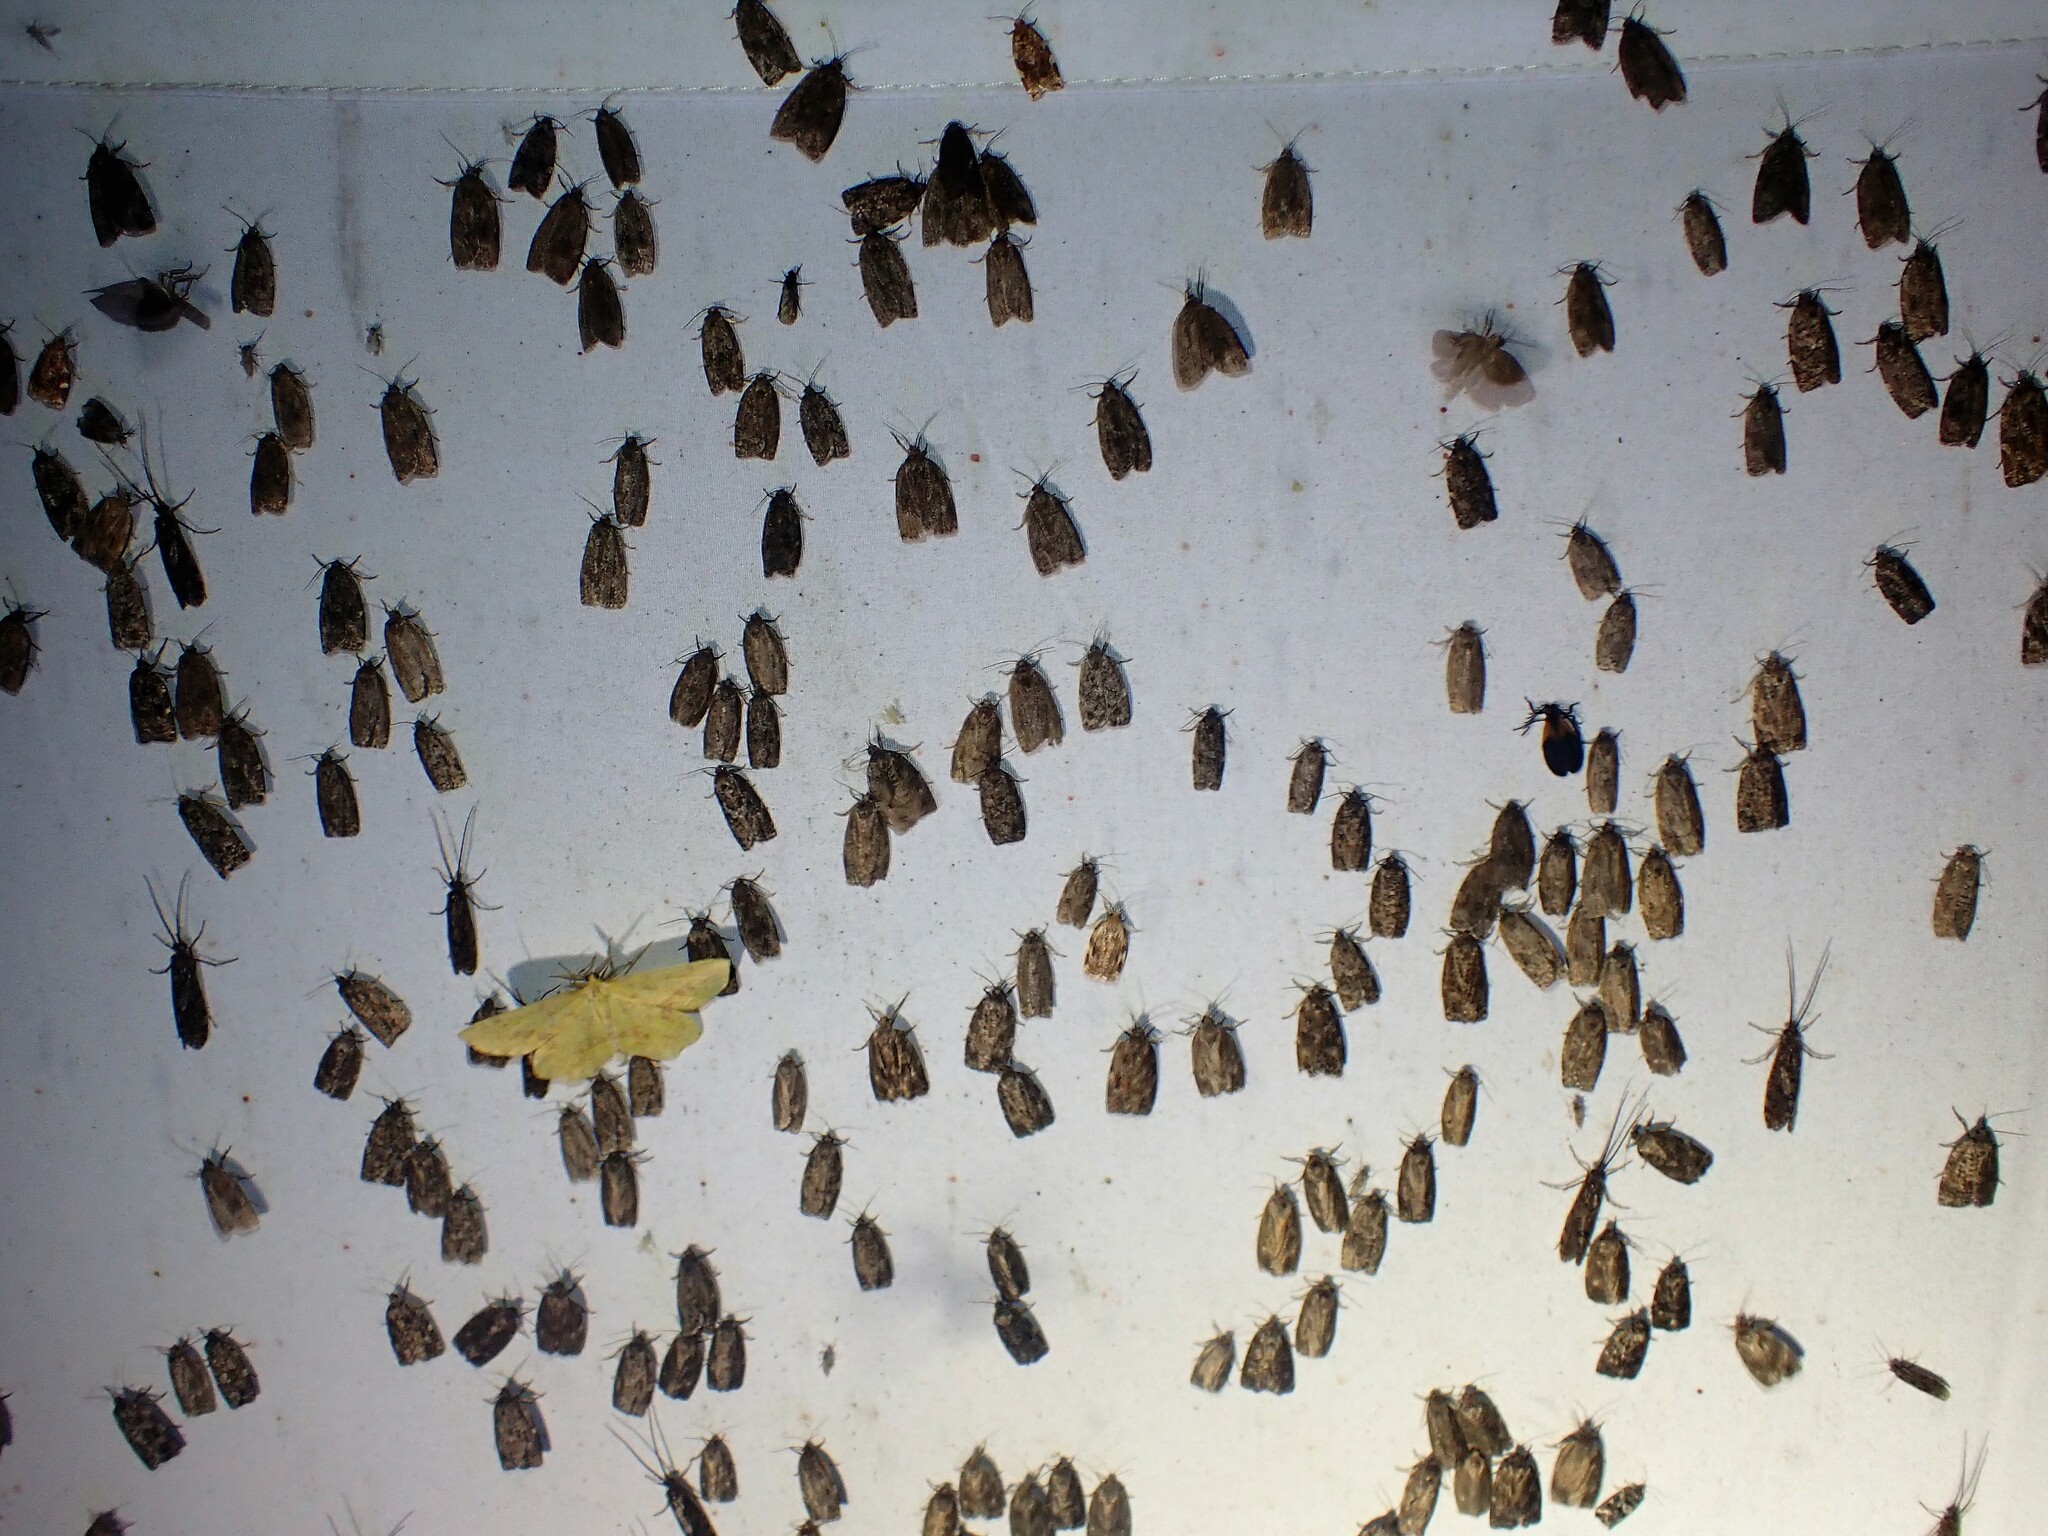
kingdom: Animalia
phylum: Arthropoda
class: Insecta
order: Lepidoptera
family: Tortricidae
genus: Choristoneura
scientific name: Choristoneura fumiferana
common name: Spruce budworm
